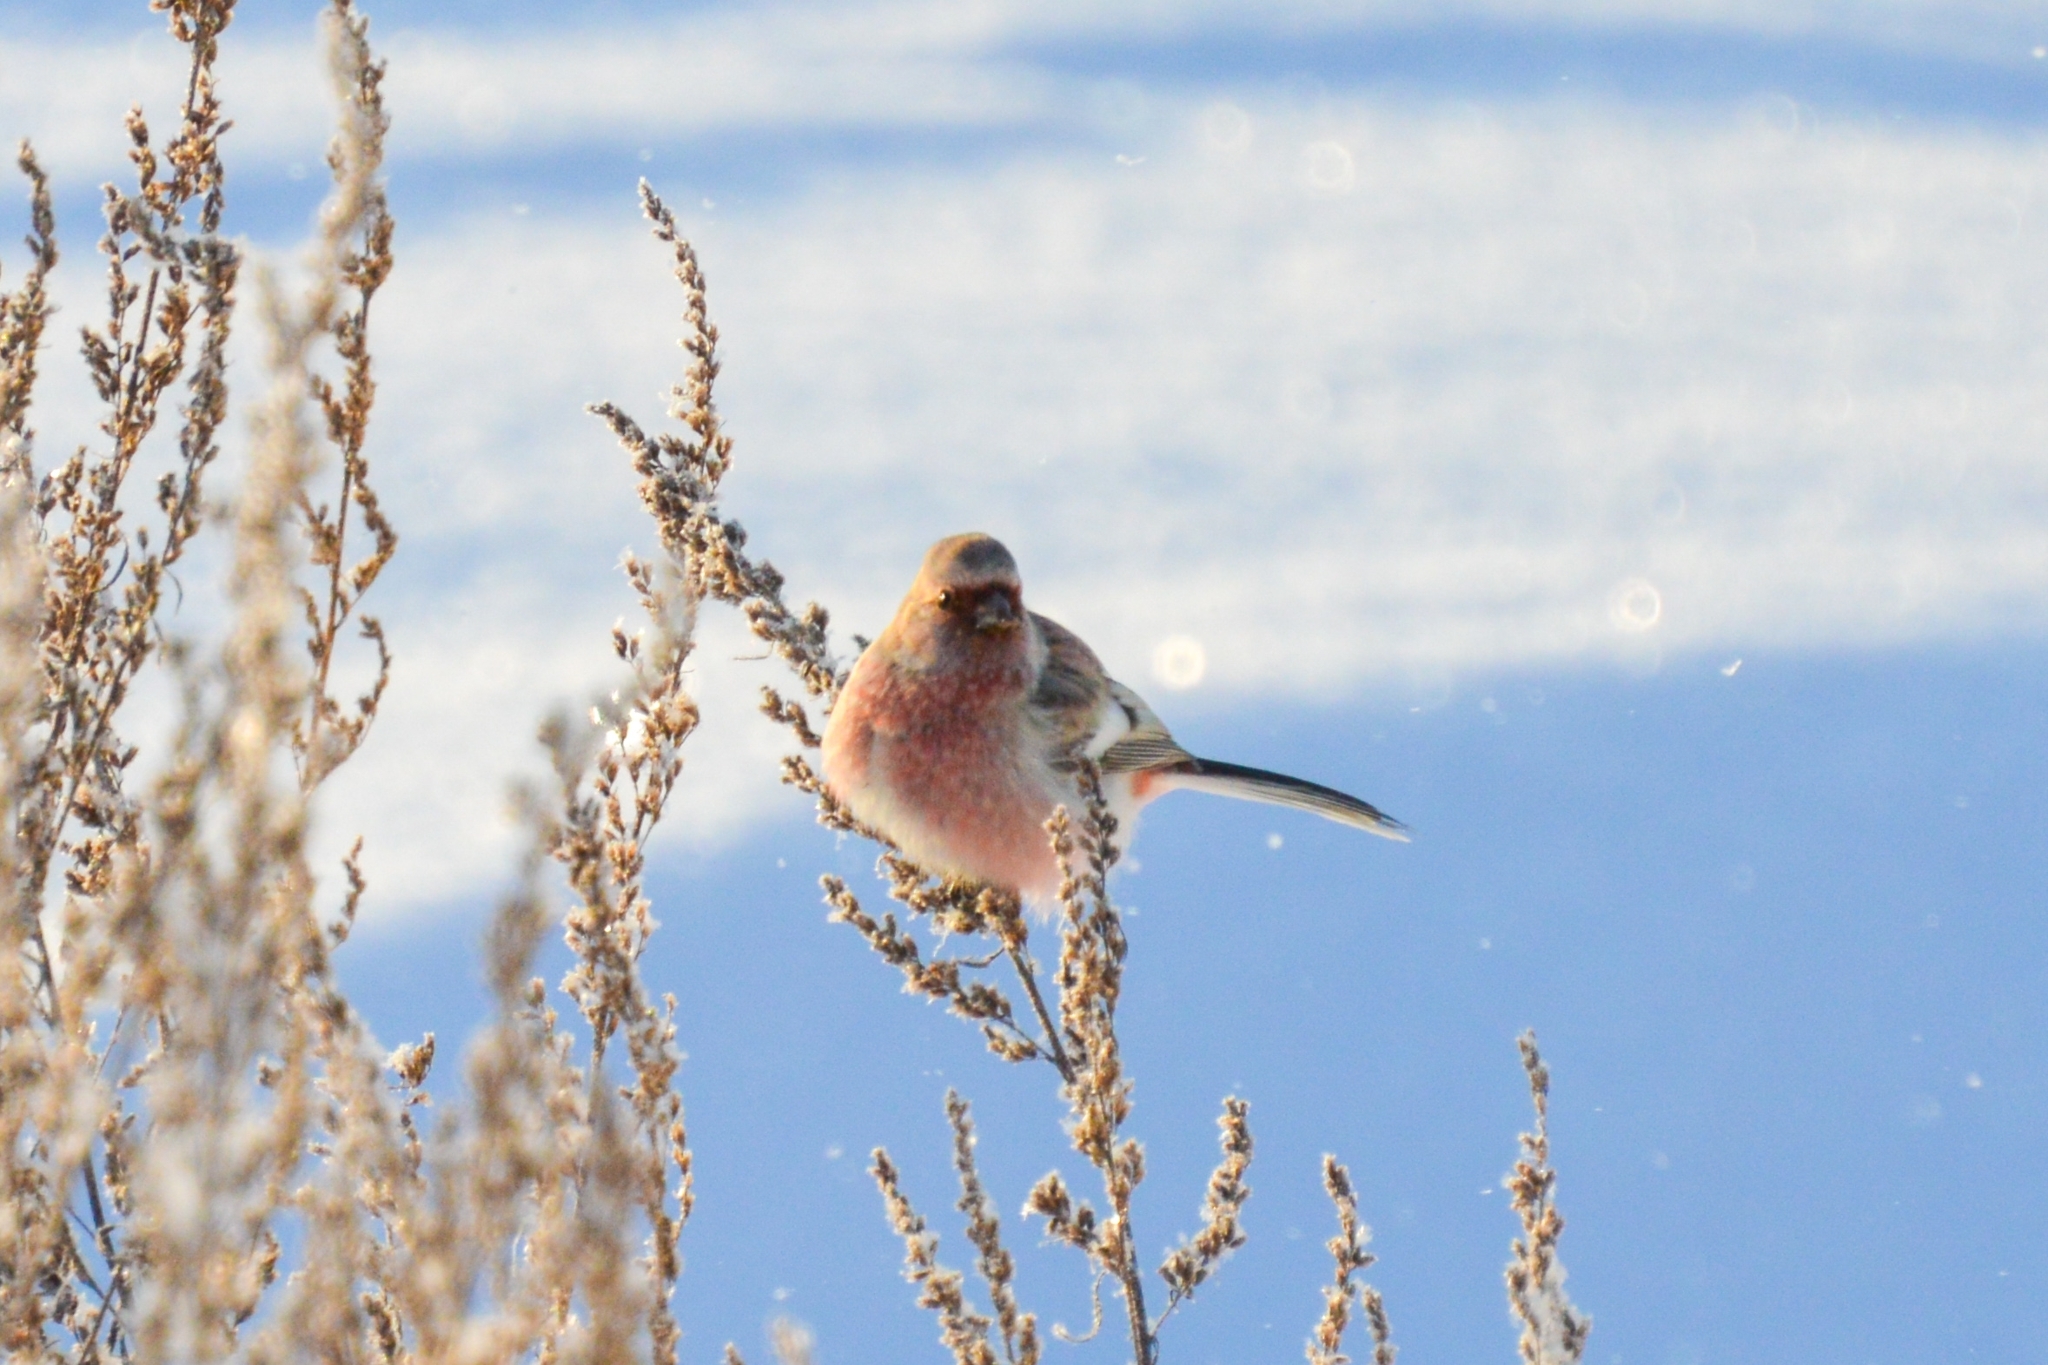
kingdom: Animalia
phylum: Chordata
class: Aves
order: Passeriformes
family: Fringillidae
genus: Carpodacus
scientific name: Carpodacus sibiricus
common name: Long-tailed rosefinch
